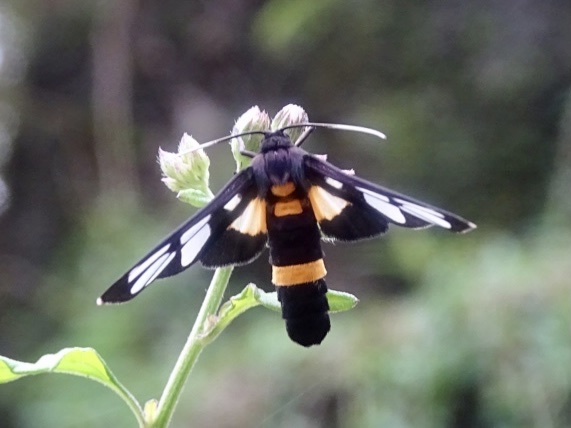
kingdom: Animalia
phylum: Arthropoda
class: Insecta
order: Lepidoptera
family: Erebidae
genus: Amata
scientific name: Amata sperbius
